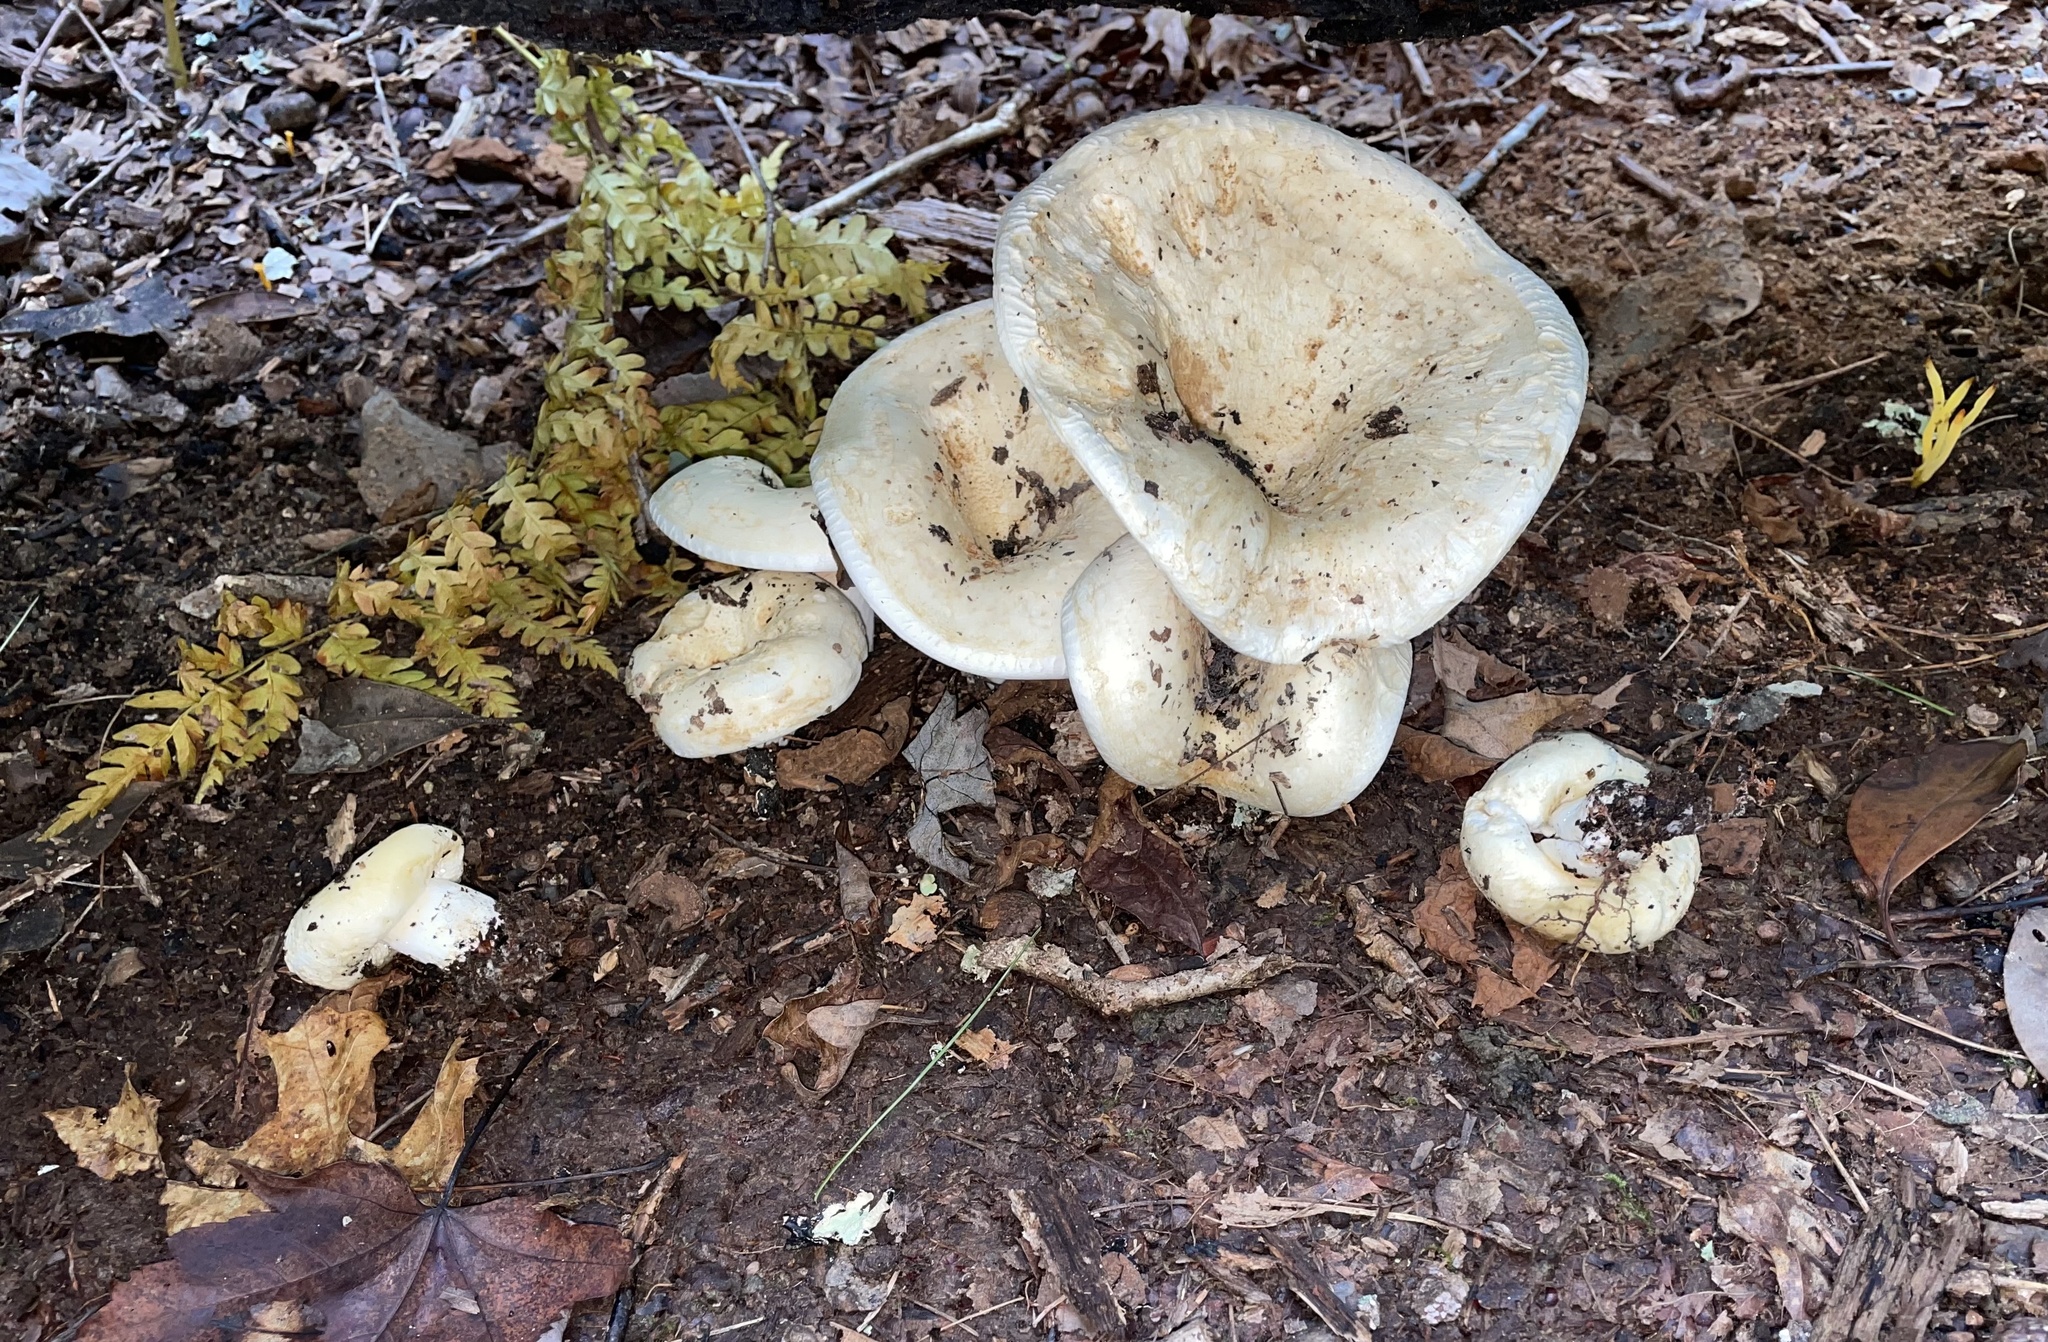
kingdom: Fungi
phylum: Basidiomycota
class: Agaricomycetes
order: Russulales
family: Russulaceae
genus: Lactifluus
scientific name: Lactifluus
